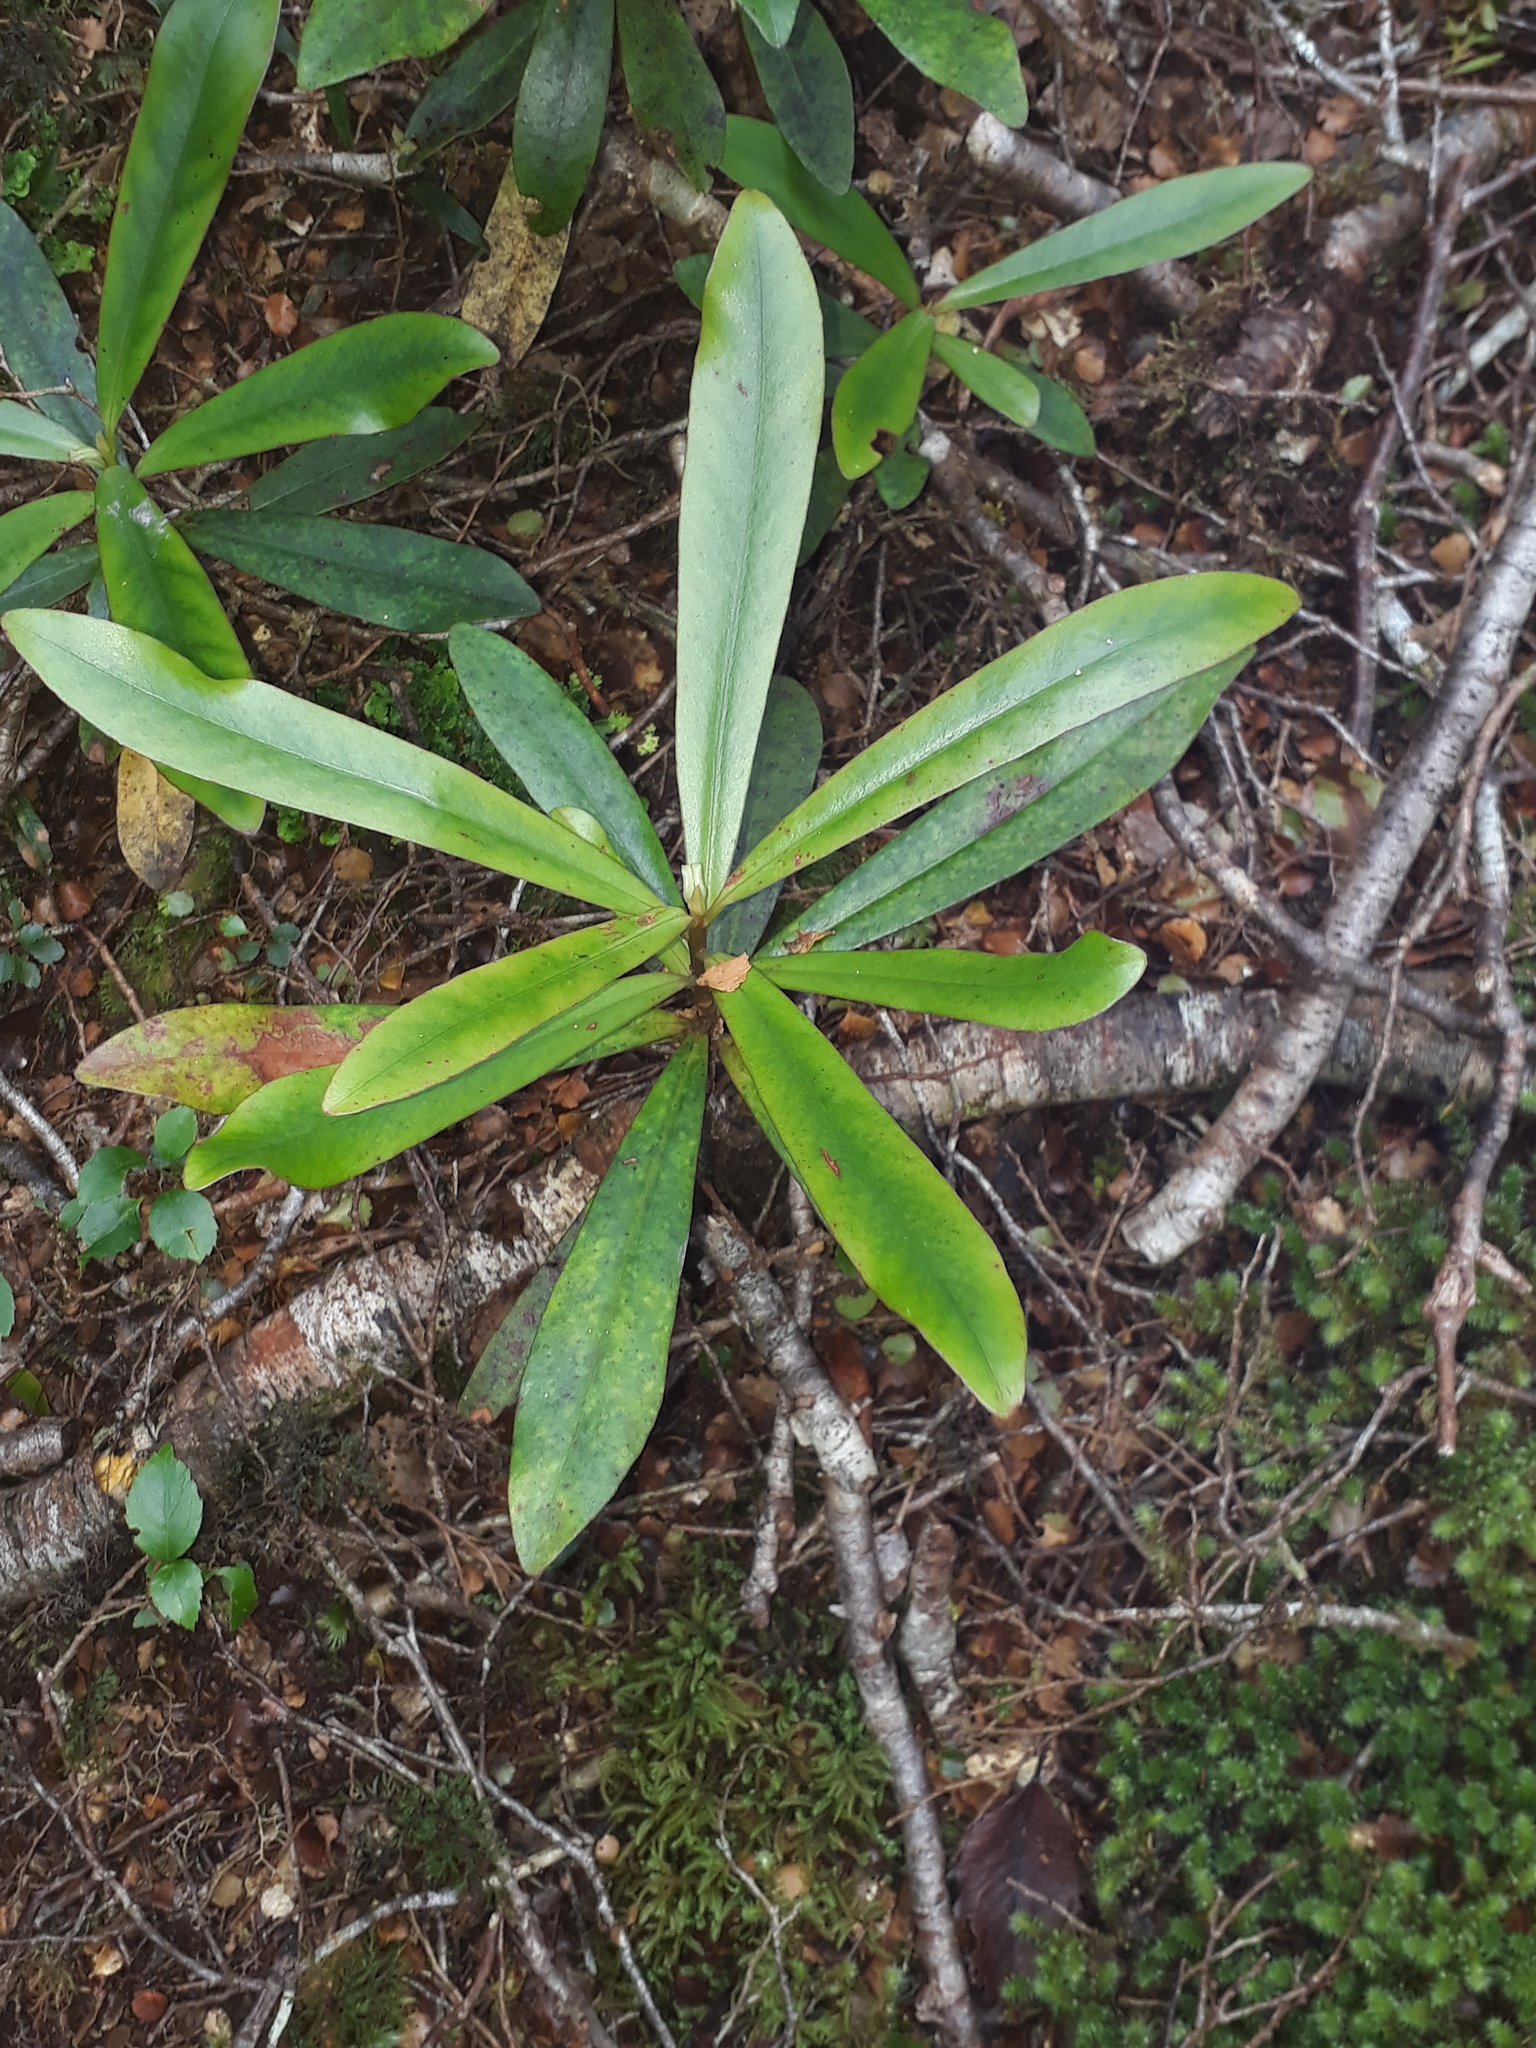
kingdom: Plantae
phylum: Tracheophyta
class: Magnoliopsida
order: Ericales
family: Primulaceae
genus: Myrsine
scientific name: Myrsine salicina
